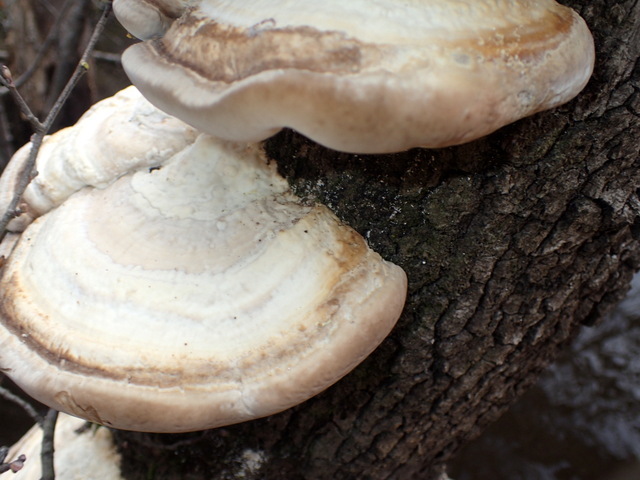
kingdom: Fungi
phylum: Basidiomycota
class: Agaricomycetes
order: Polyporales
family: Polyporaceae
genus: Trametes
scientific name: Trametes lactinea
